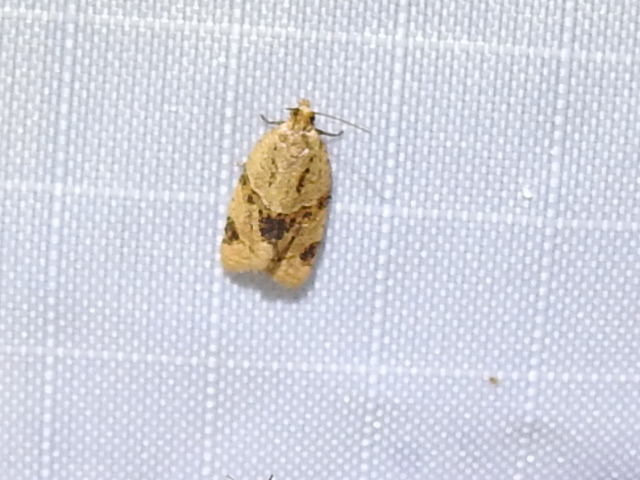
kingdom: Animalia
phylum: Arthropoda
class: Insecta
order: Lepidoptera
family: Tortricidae
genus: Clepsis
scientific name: Clepsis peritana
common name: Garden tortrix
